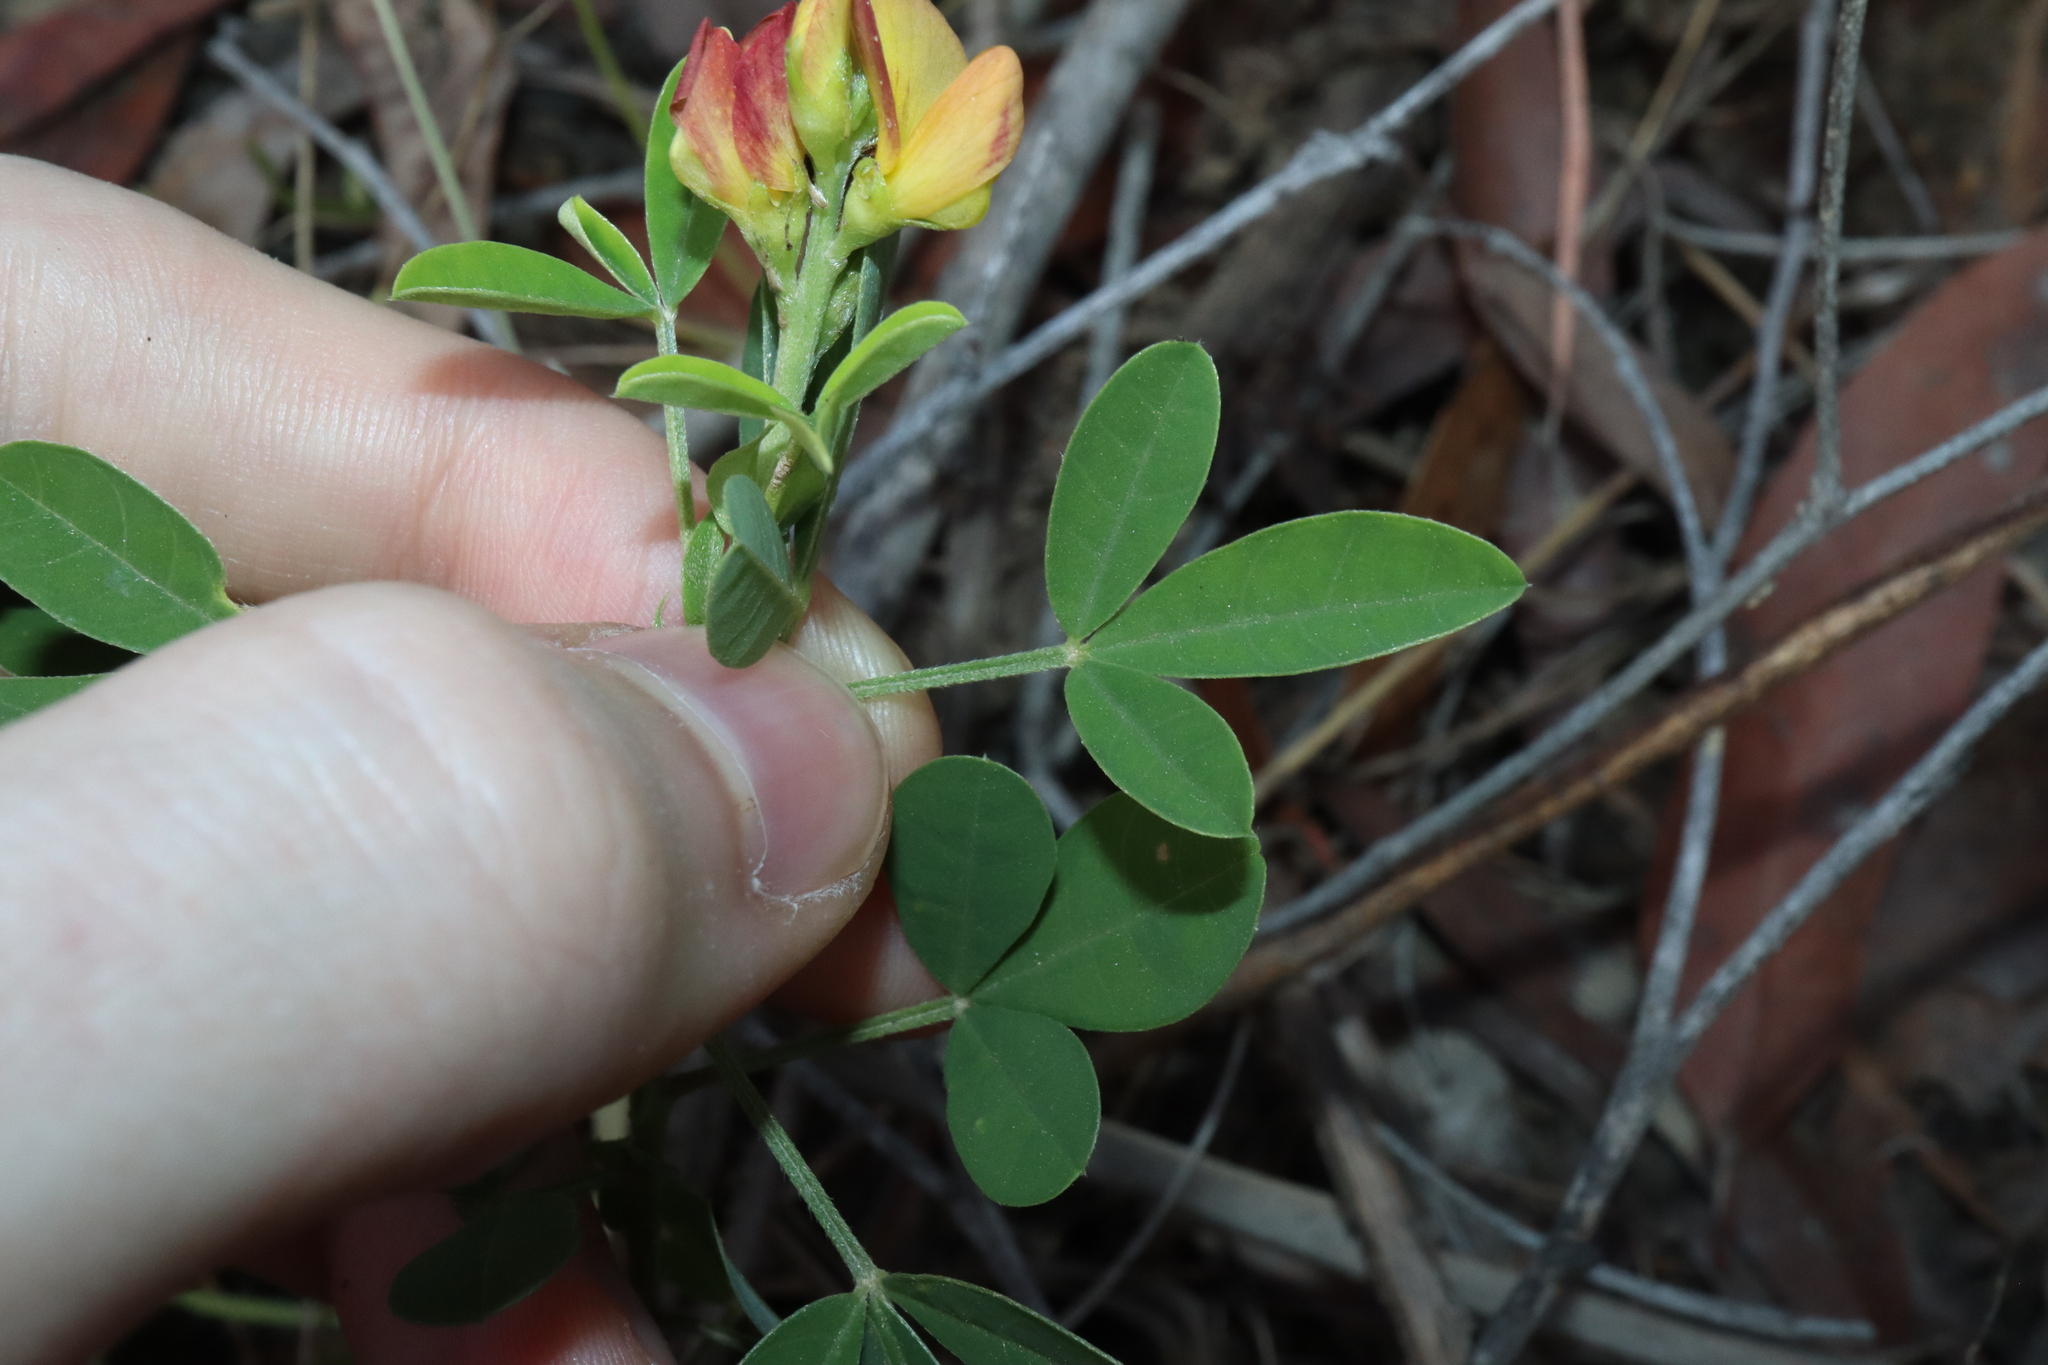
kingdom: Plantae
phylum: Tracheophyta
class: Magnoliopsida
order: Fabales
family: Fabaceae
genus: Crotalaria
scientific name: Crotalaria goreensis
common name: Gambia-pea
